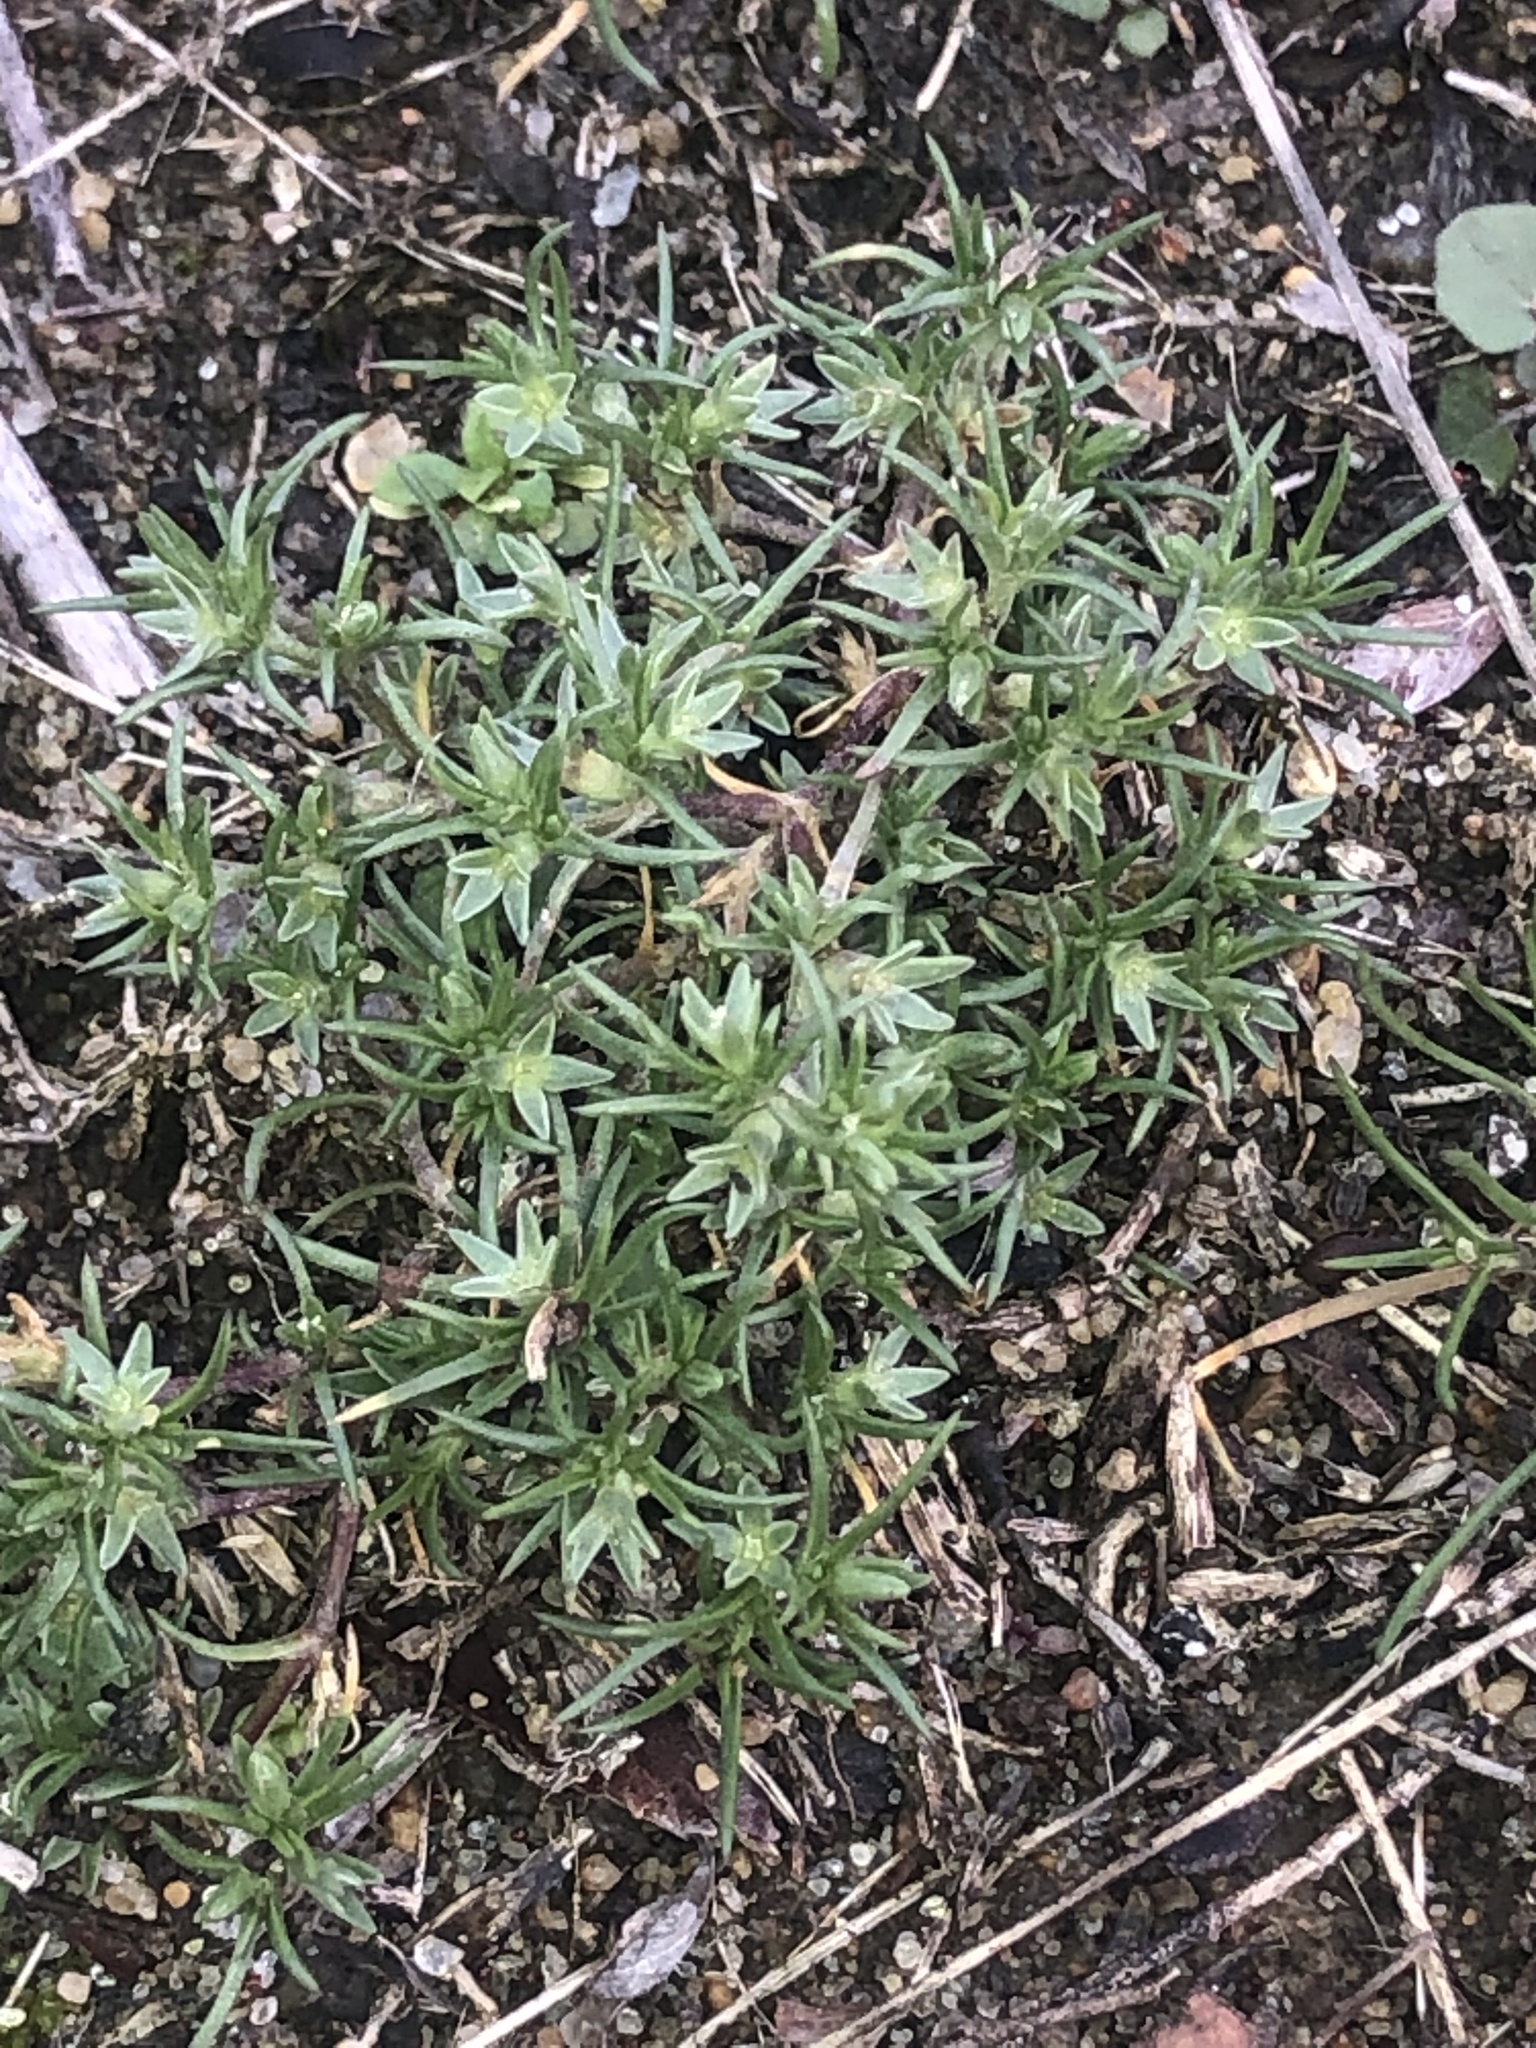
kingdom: Plantae
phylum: Tracheophyta
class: Magnoliopsida
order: Caryophyllales
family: Caryophyllaceae
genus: Scleranthus
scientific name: Scleranthus annuus
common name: Annual knawel
